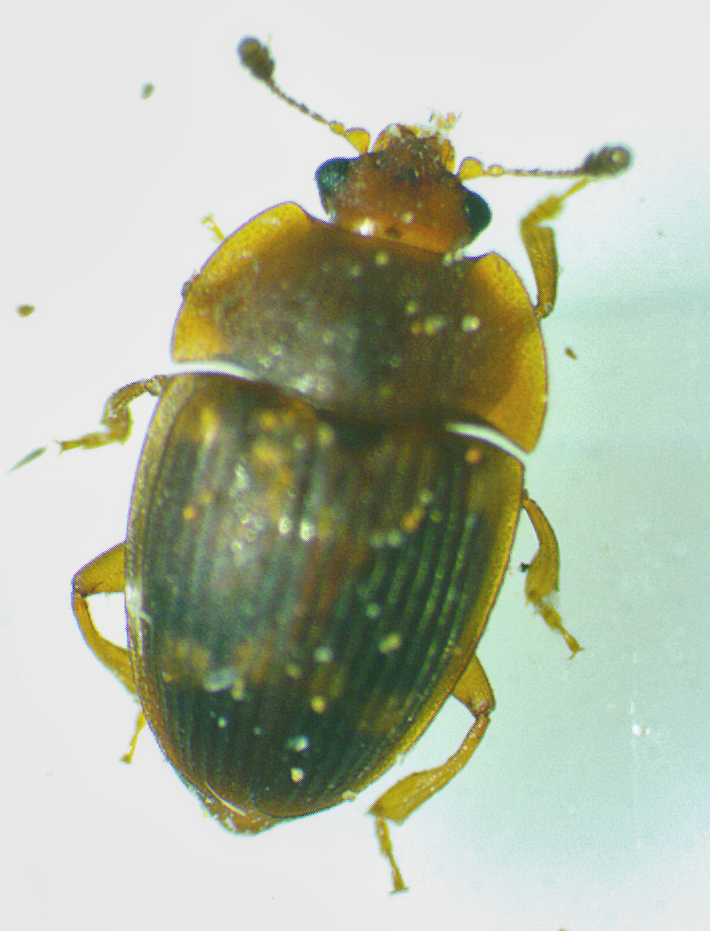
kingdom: Animalia
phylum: Arthropoda
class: Insecta
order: Coleoptera
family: Nitidulidae
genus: Stelidota
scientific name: Stelidota geminata
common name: Strawberry sap beetle
